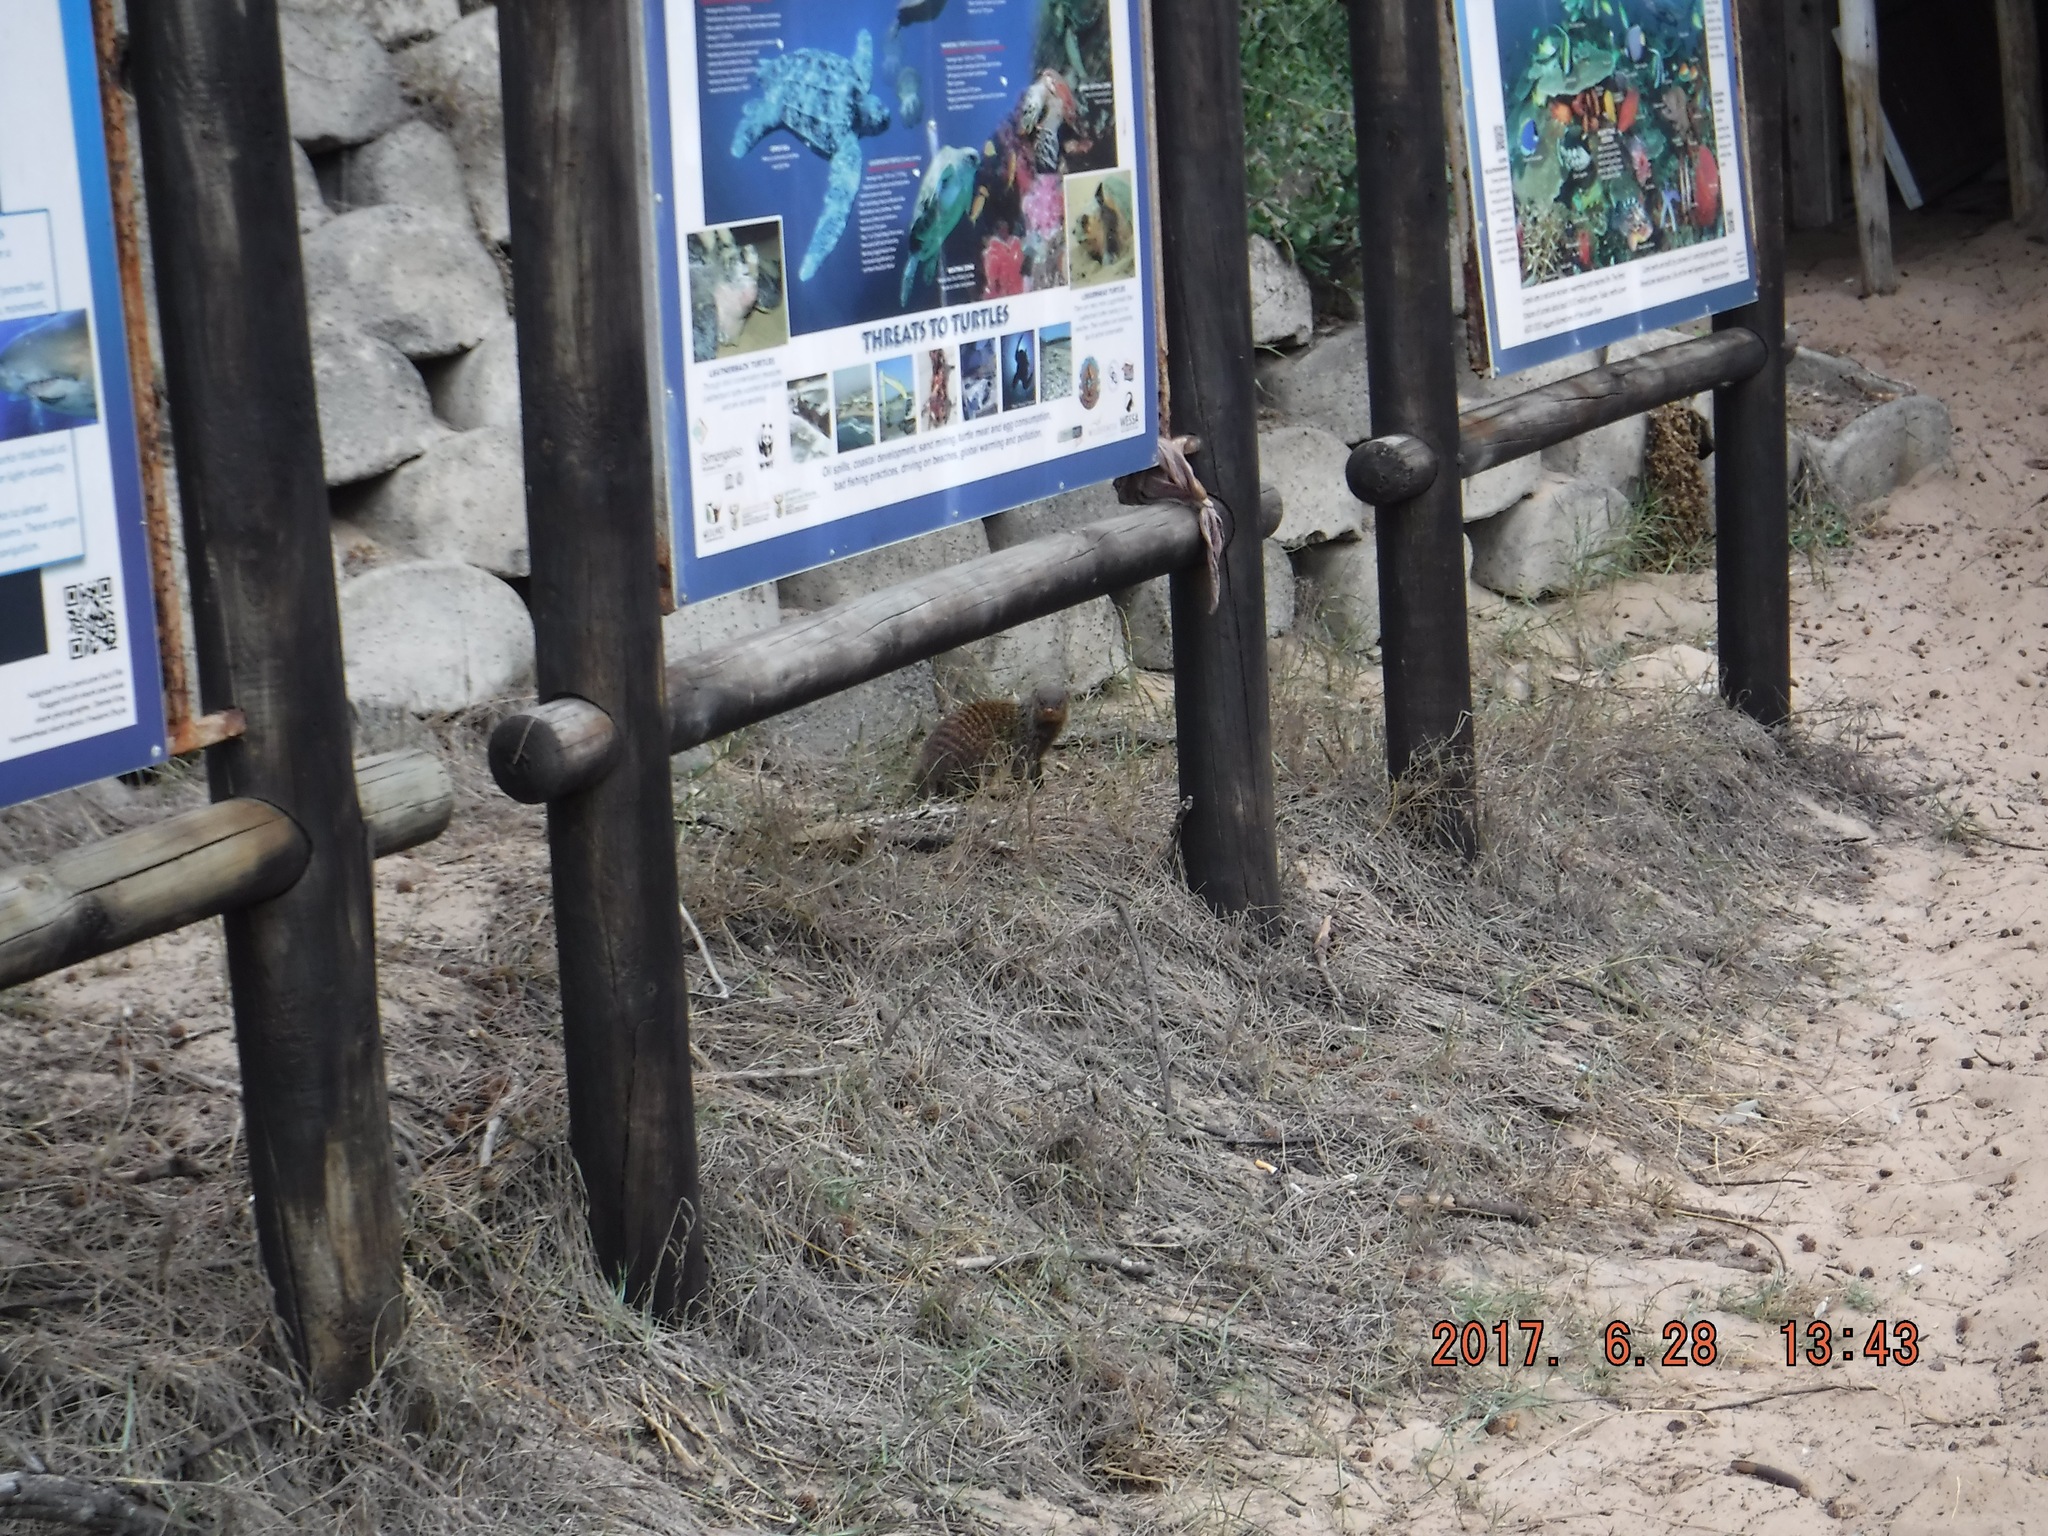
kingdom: Animalia
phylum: Chordata
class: Mammalia
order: Carnivora
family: Herpestidae
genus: Mungos
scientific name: Mungos mungo
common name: Banded mongoose
